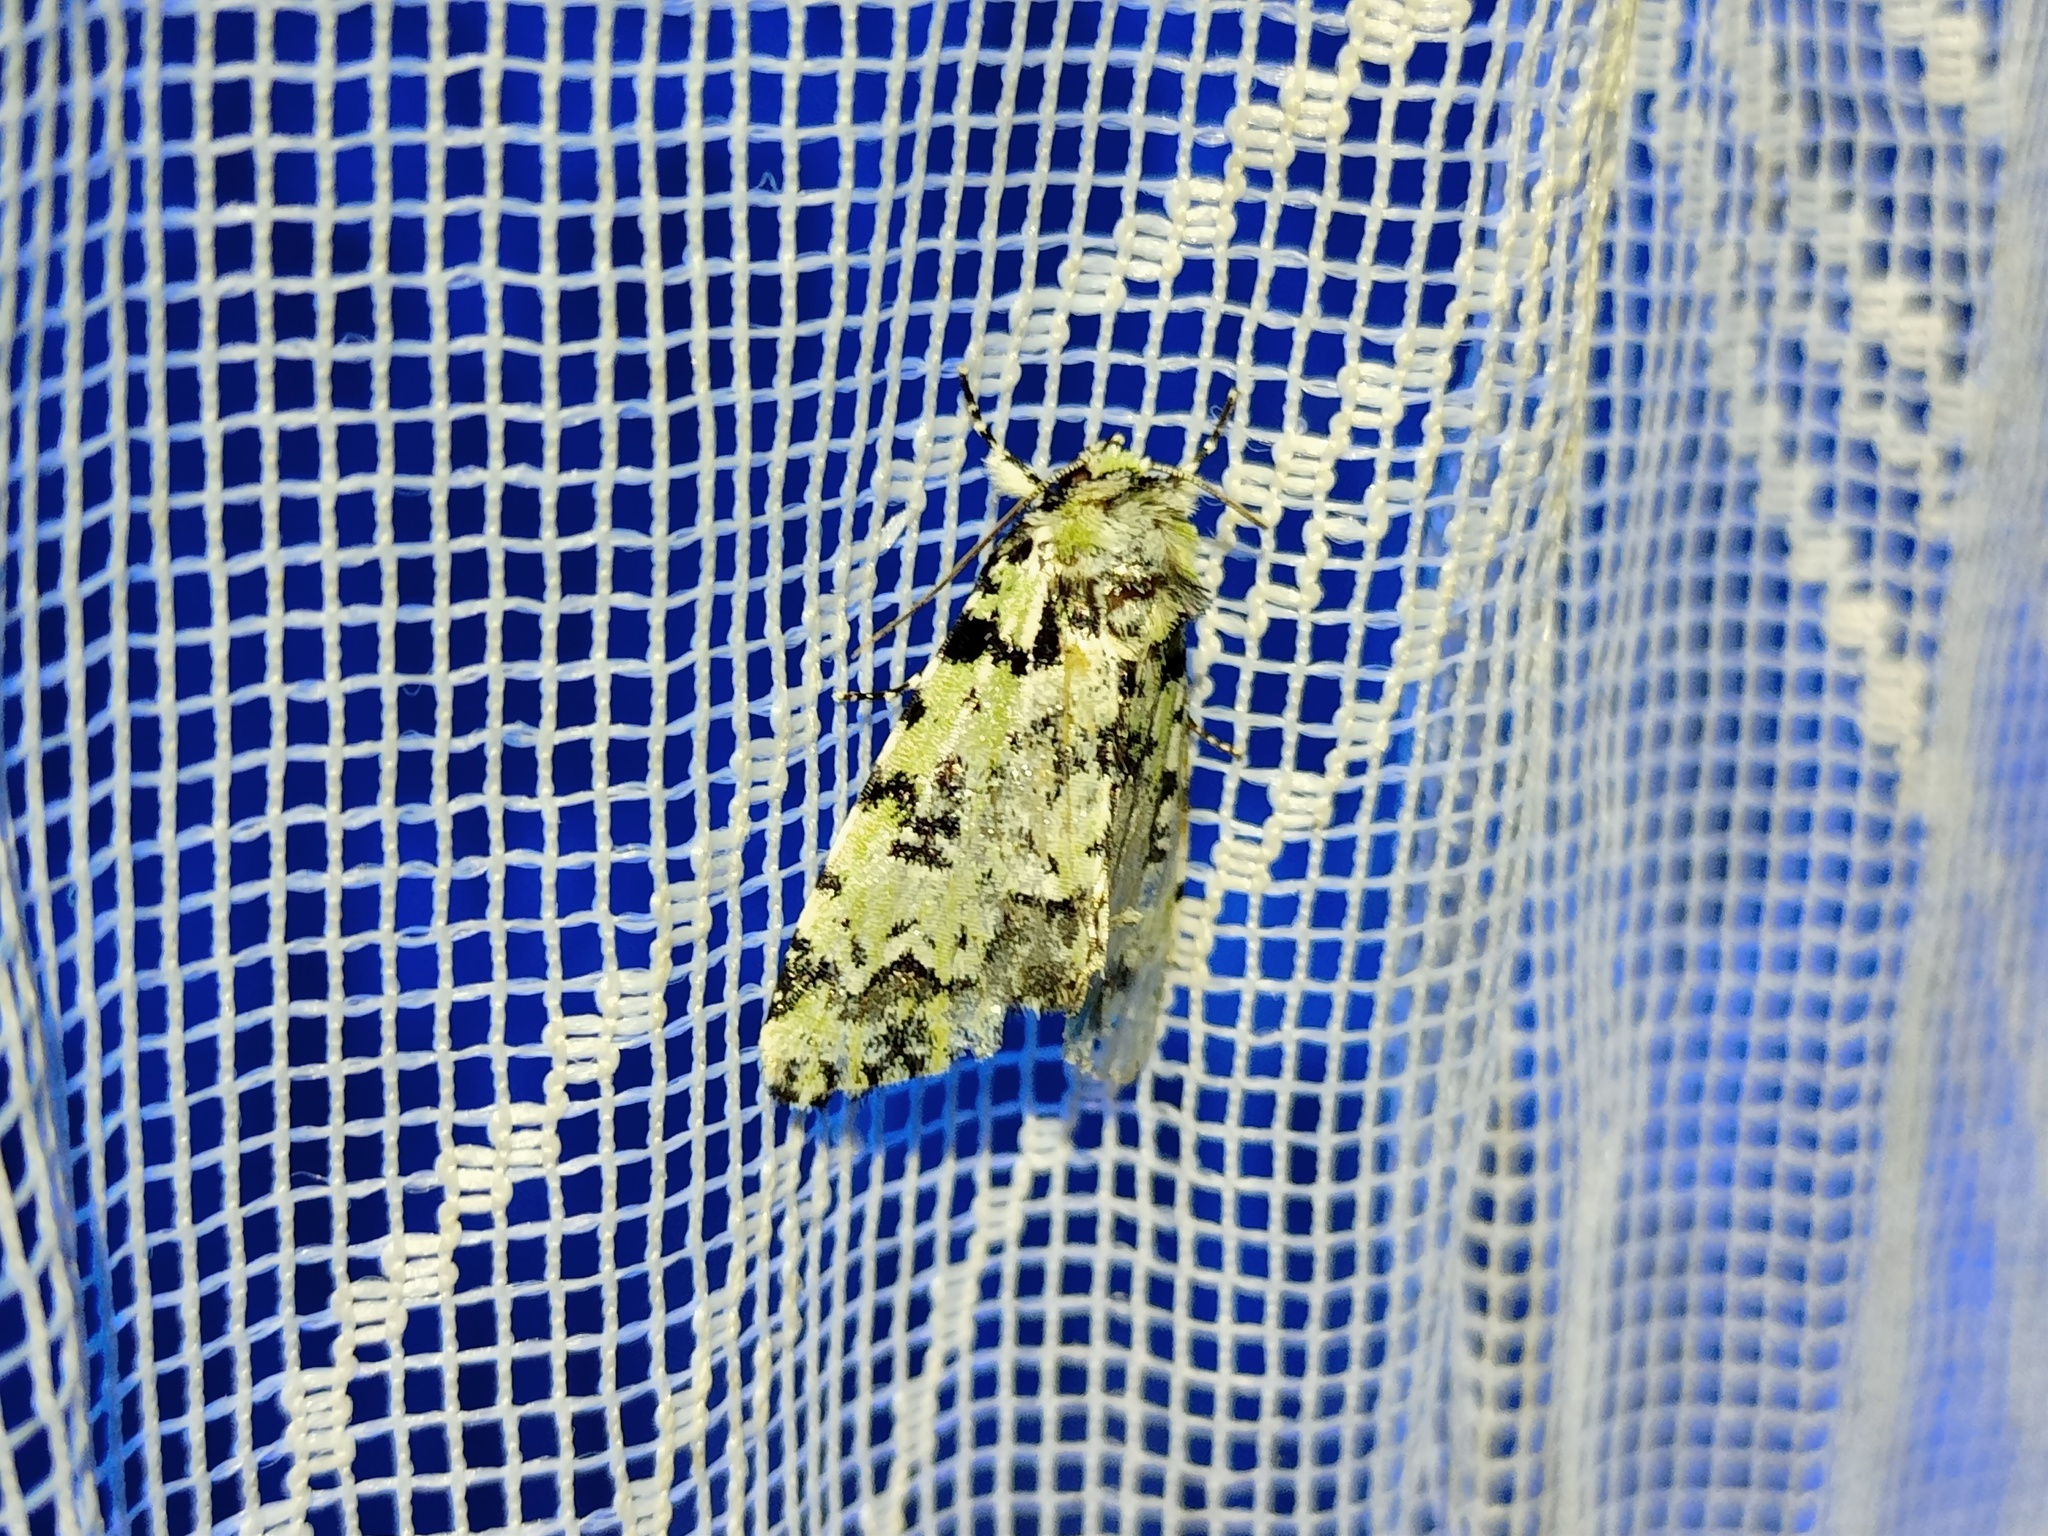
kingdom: Animalia
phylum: Arthropoda
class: Insecta
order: Lepidoptera
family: Noctuidae
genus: Moma
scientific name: Moma alpium
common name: Scarce merveille du jour
